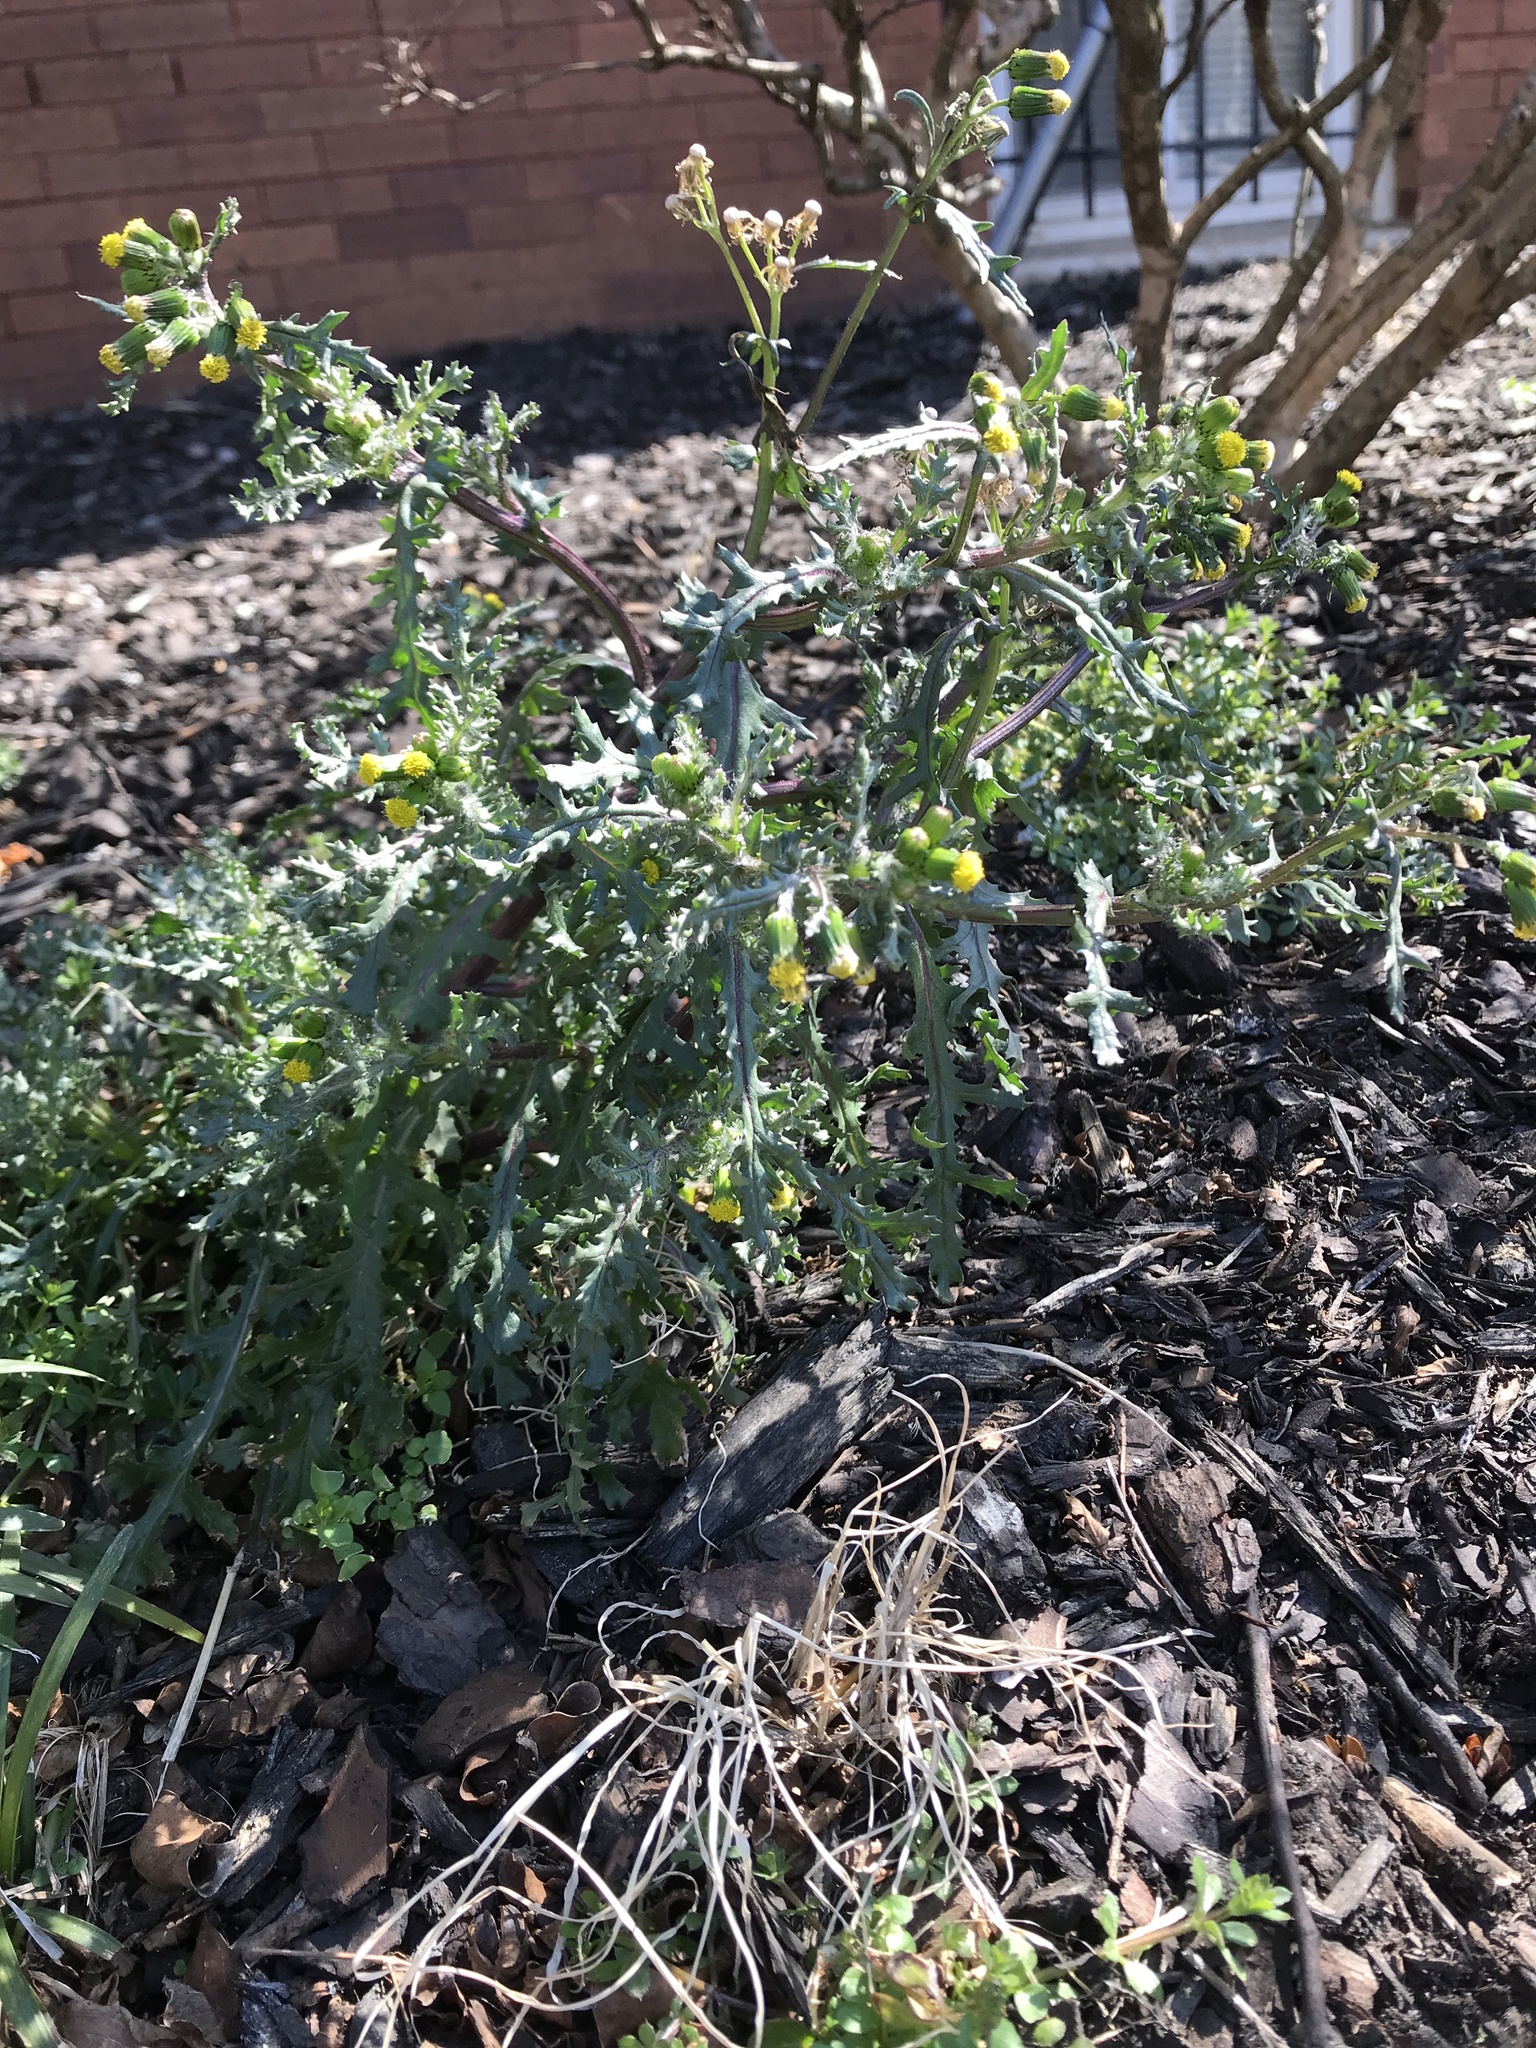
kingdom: Plantae
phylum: Tracheophyta
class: Magnoliopsida
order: Asterales
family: Asteraceae
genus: Senecio
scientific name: Senecio vulgaris
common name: Old-man-in-the-spring
